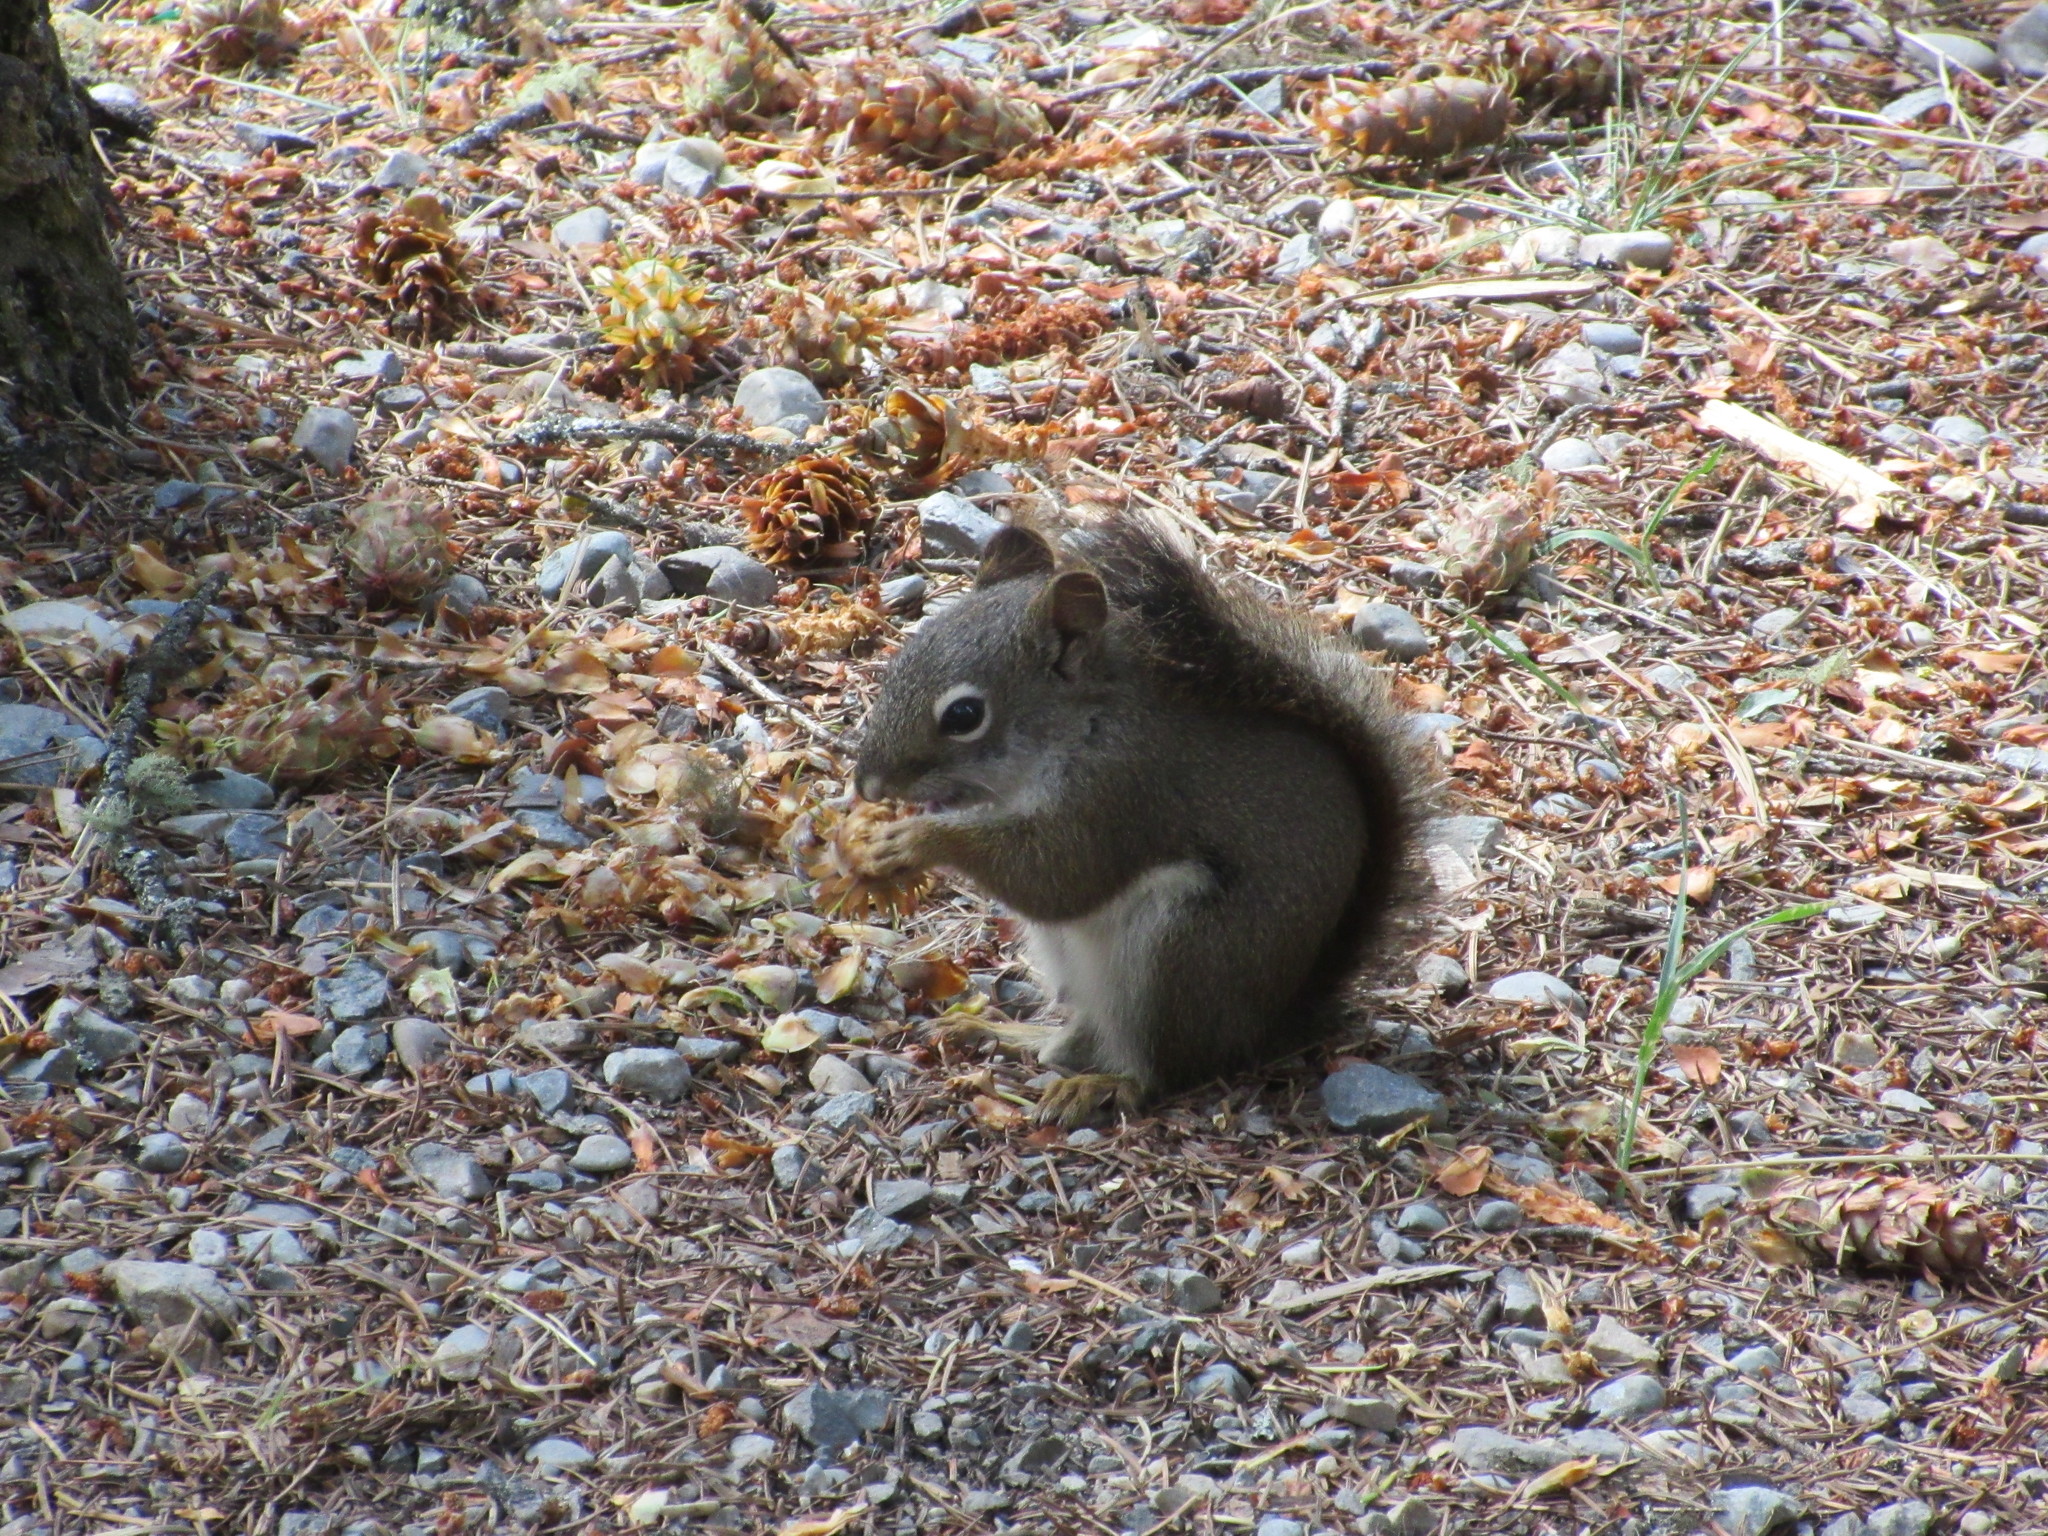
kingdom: Animalia
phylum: Chordata
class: Mammalia
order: Rodentia
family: Sciuridae
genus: Tamiasciurus
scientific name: Tamiasciurus hudsonicus
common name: Red squirrel
